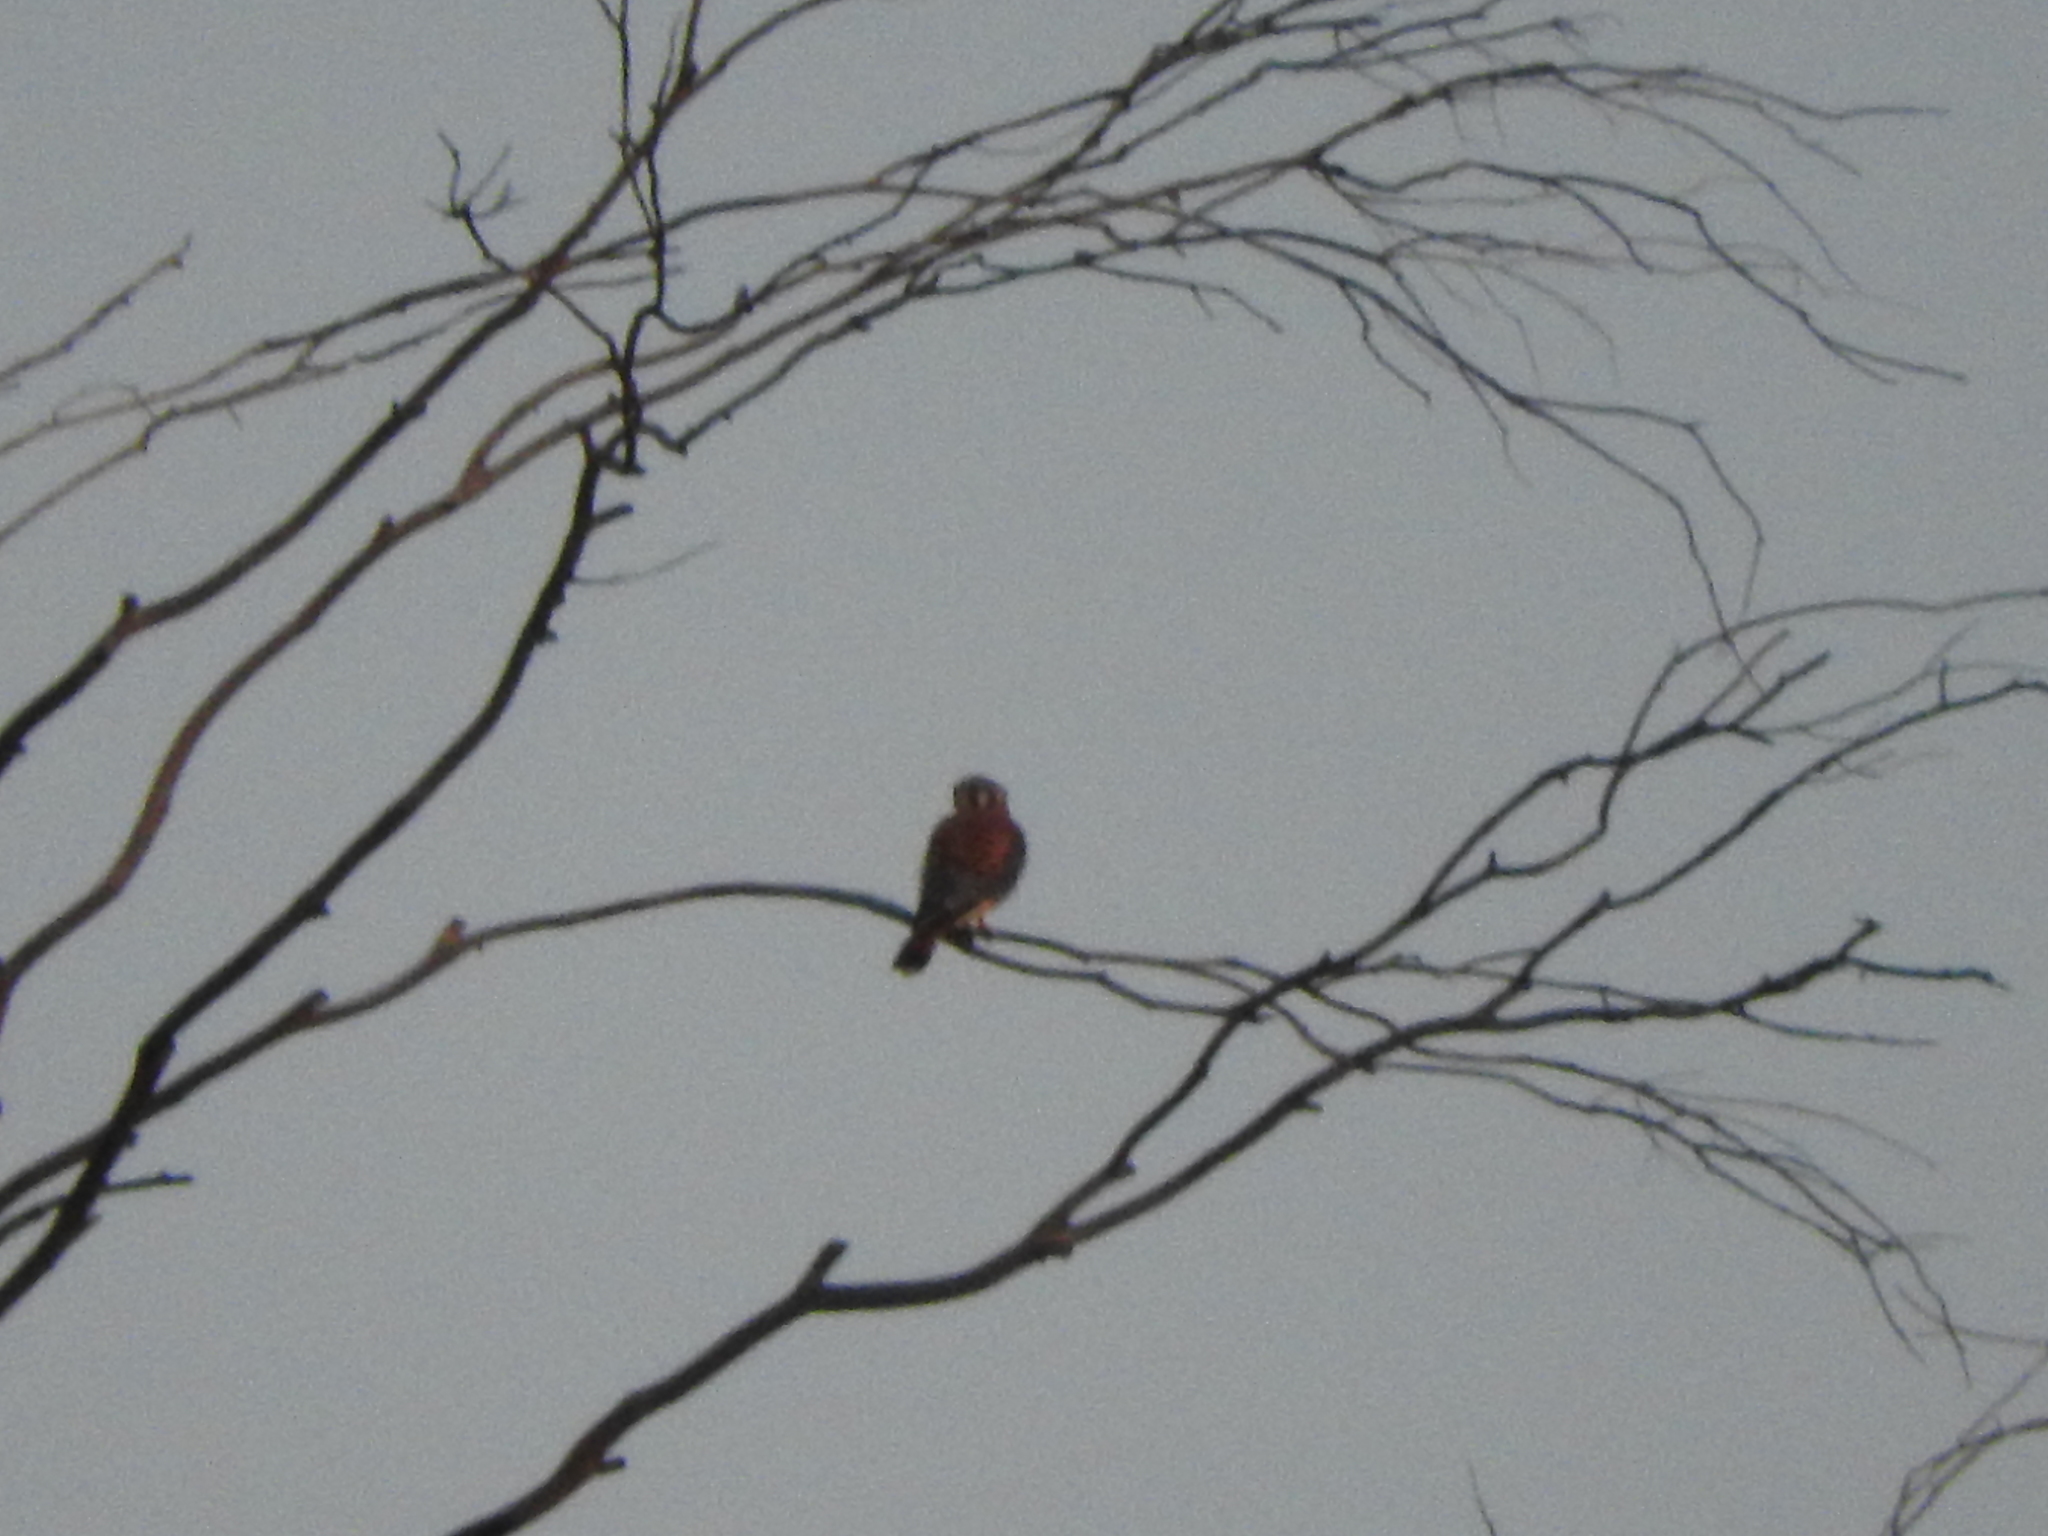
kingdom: Animalia
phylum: Chordata
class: Aves
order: Falconiformes
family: Falconidae
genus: Falco
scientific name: Falco sparverius
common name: American kestrel
